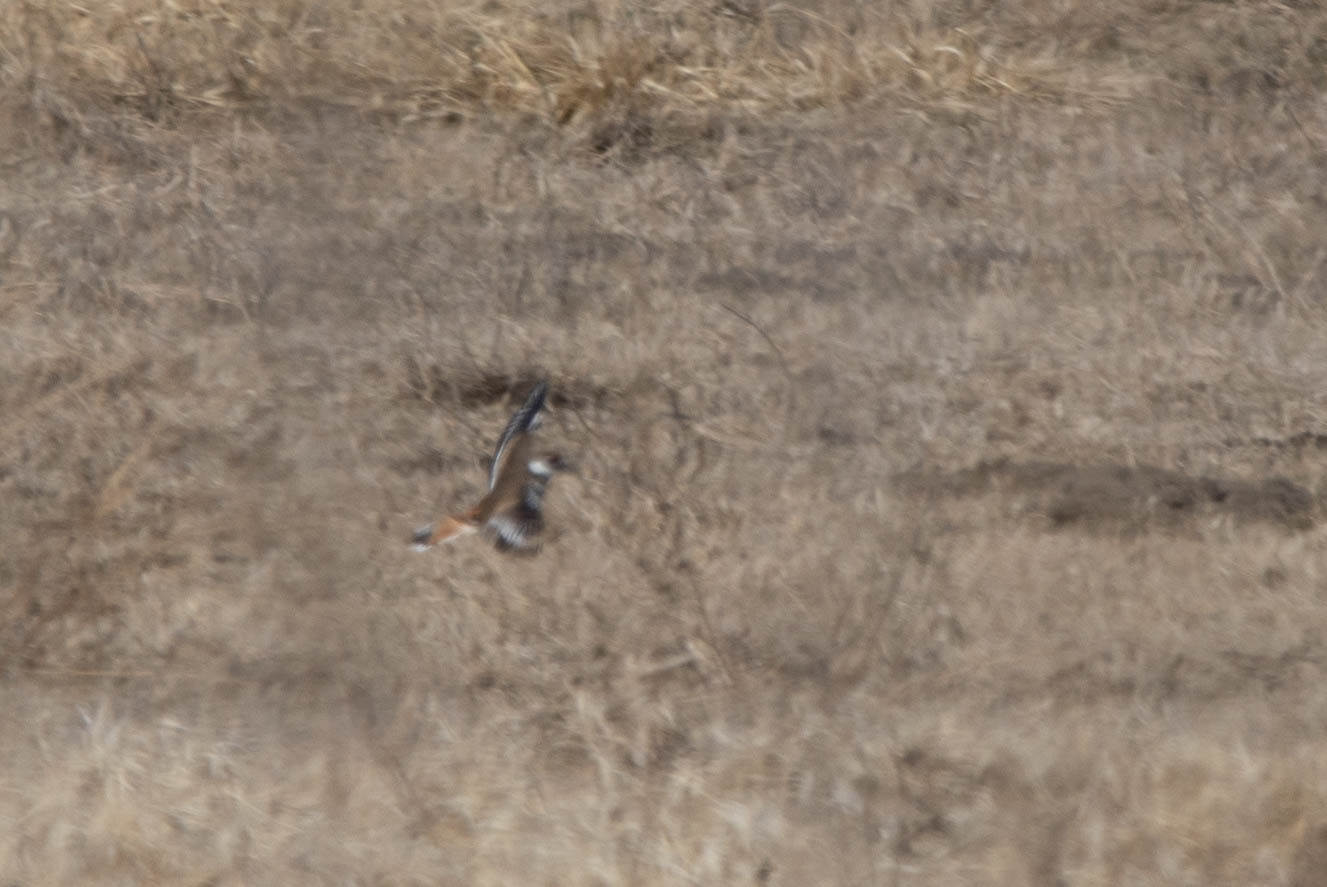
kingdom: Animalia
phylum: Chordata
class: Aves
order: Charadriiformes
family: Charadriidae
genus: Charadrius
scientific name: Charadrius vociferus
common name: Killdeer
